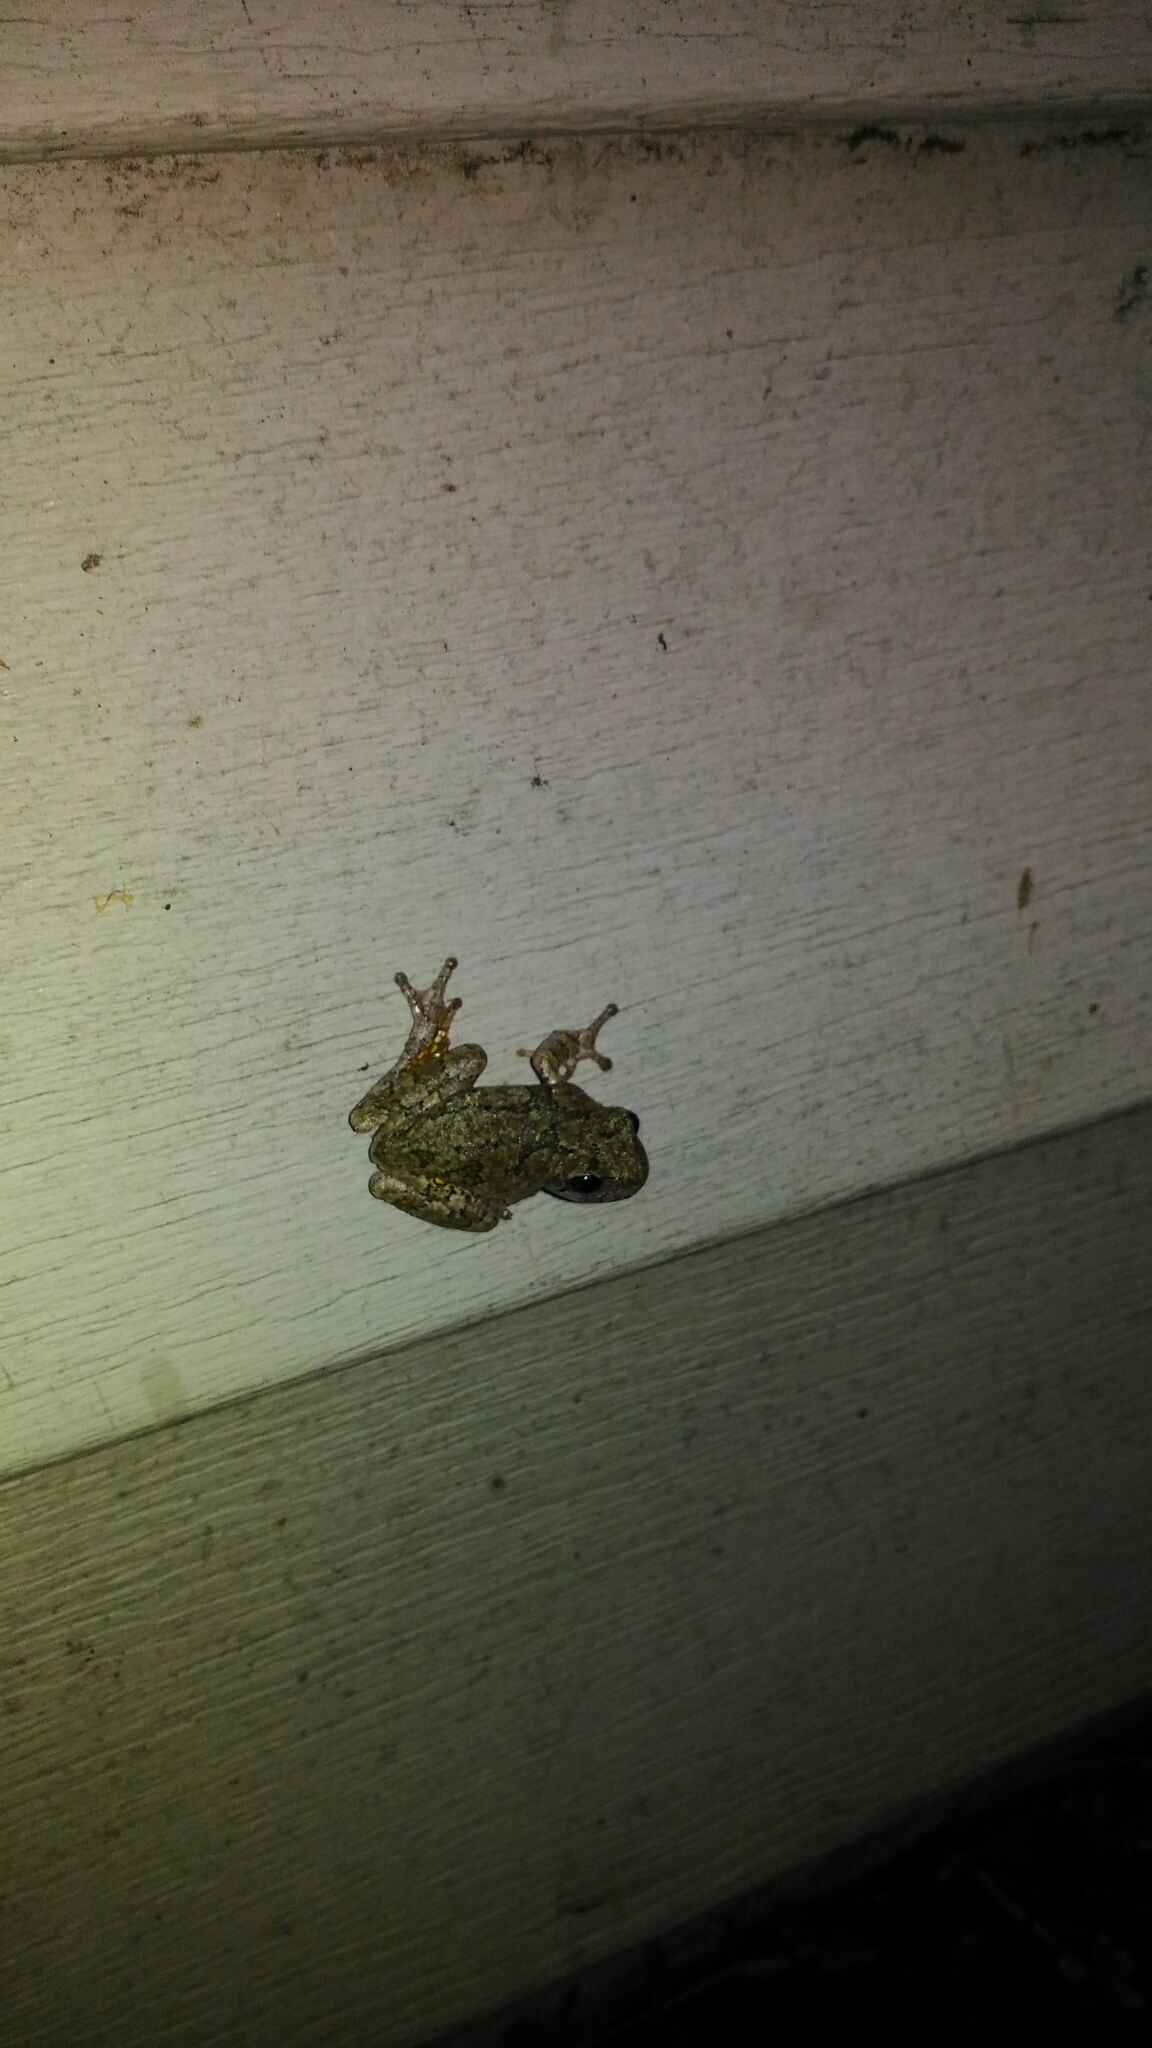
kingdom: Animalia
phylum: Chordata
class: Amphibia
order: Anura
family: Hylidae
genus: Hyla
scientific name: Hyla
